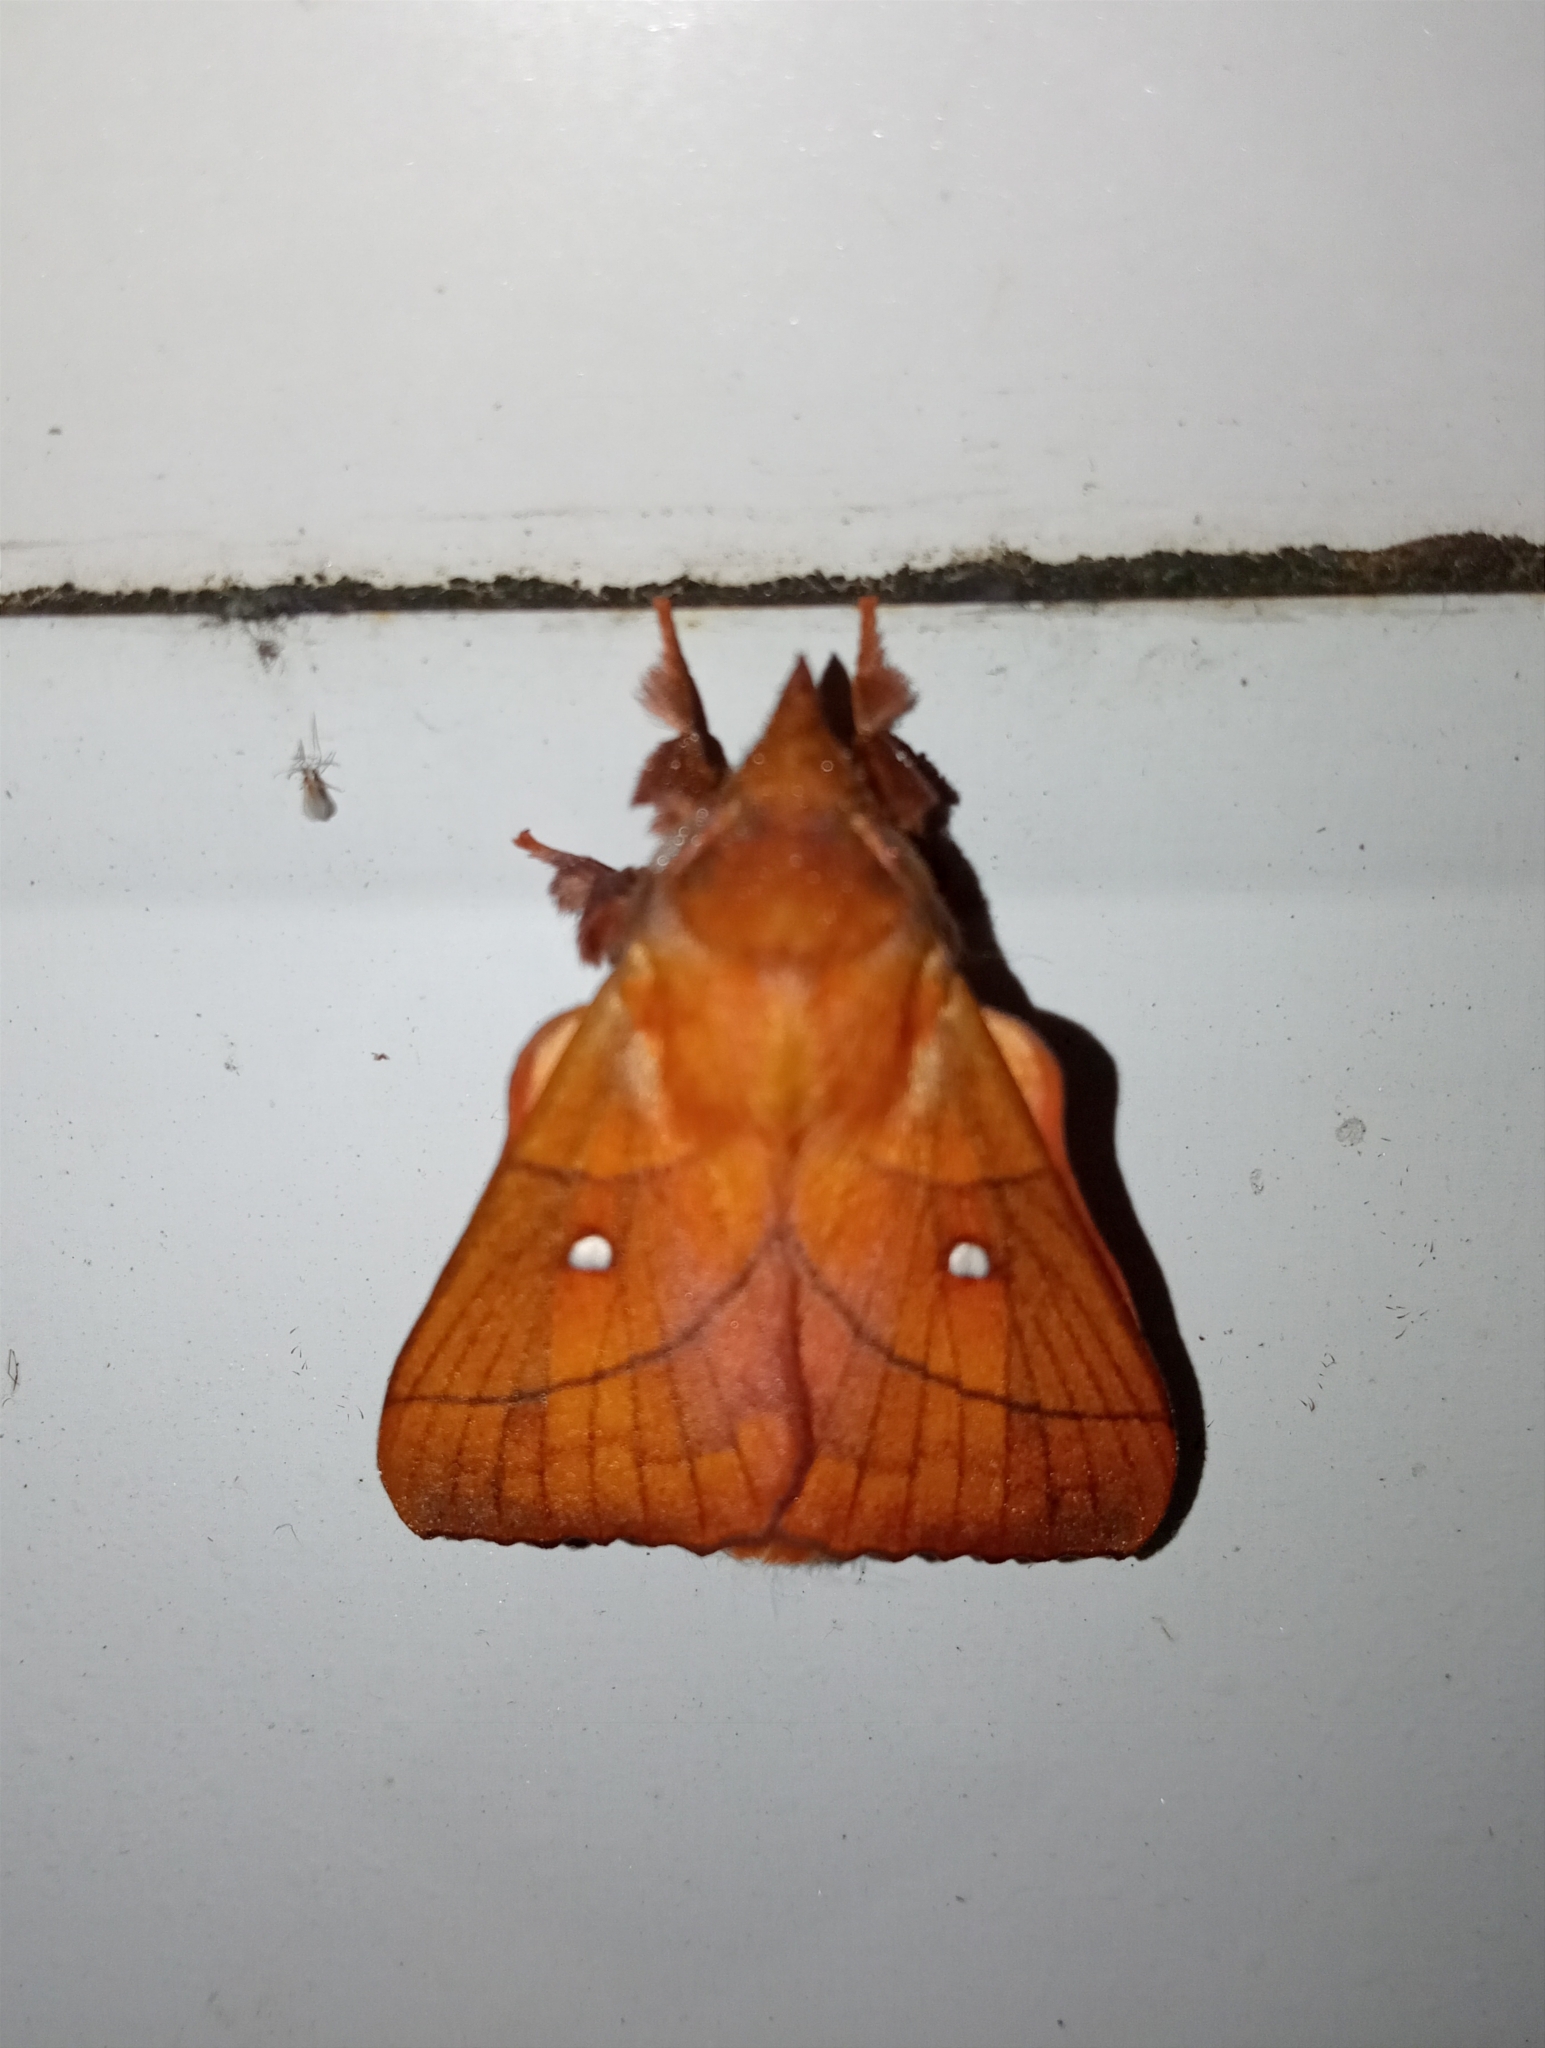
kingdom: Animalia
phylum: Arthropoda
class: Insecta
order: Lepidoptera
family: Lasiocampidae
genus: Odonestis
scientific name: Odonestis pruni
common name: Plum lappet
